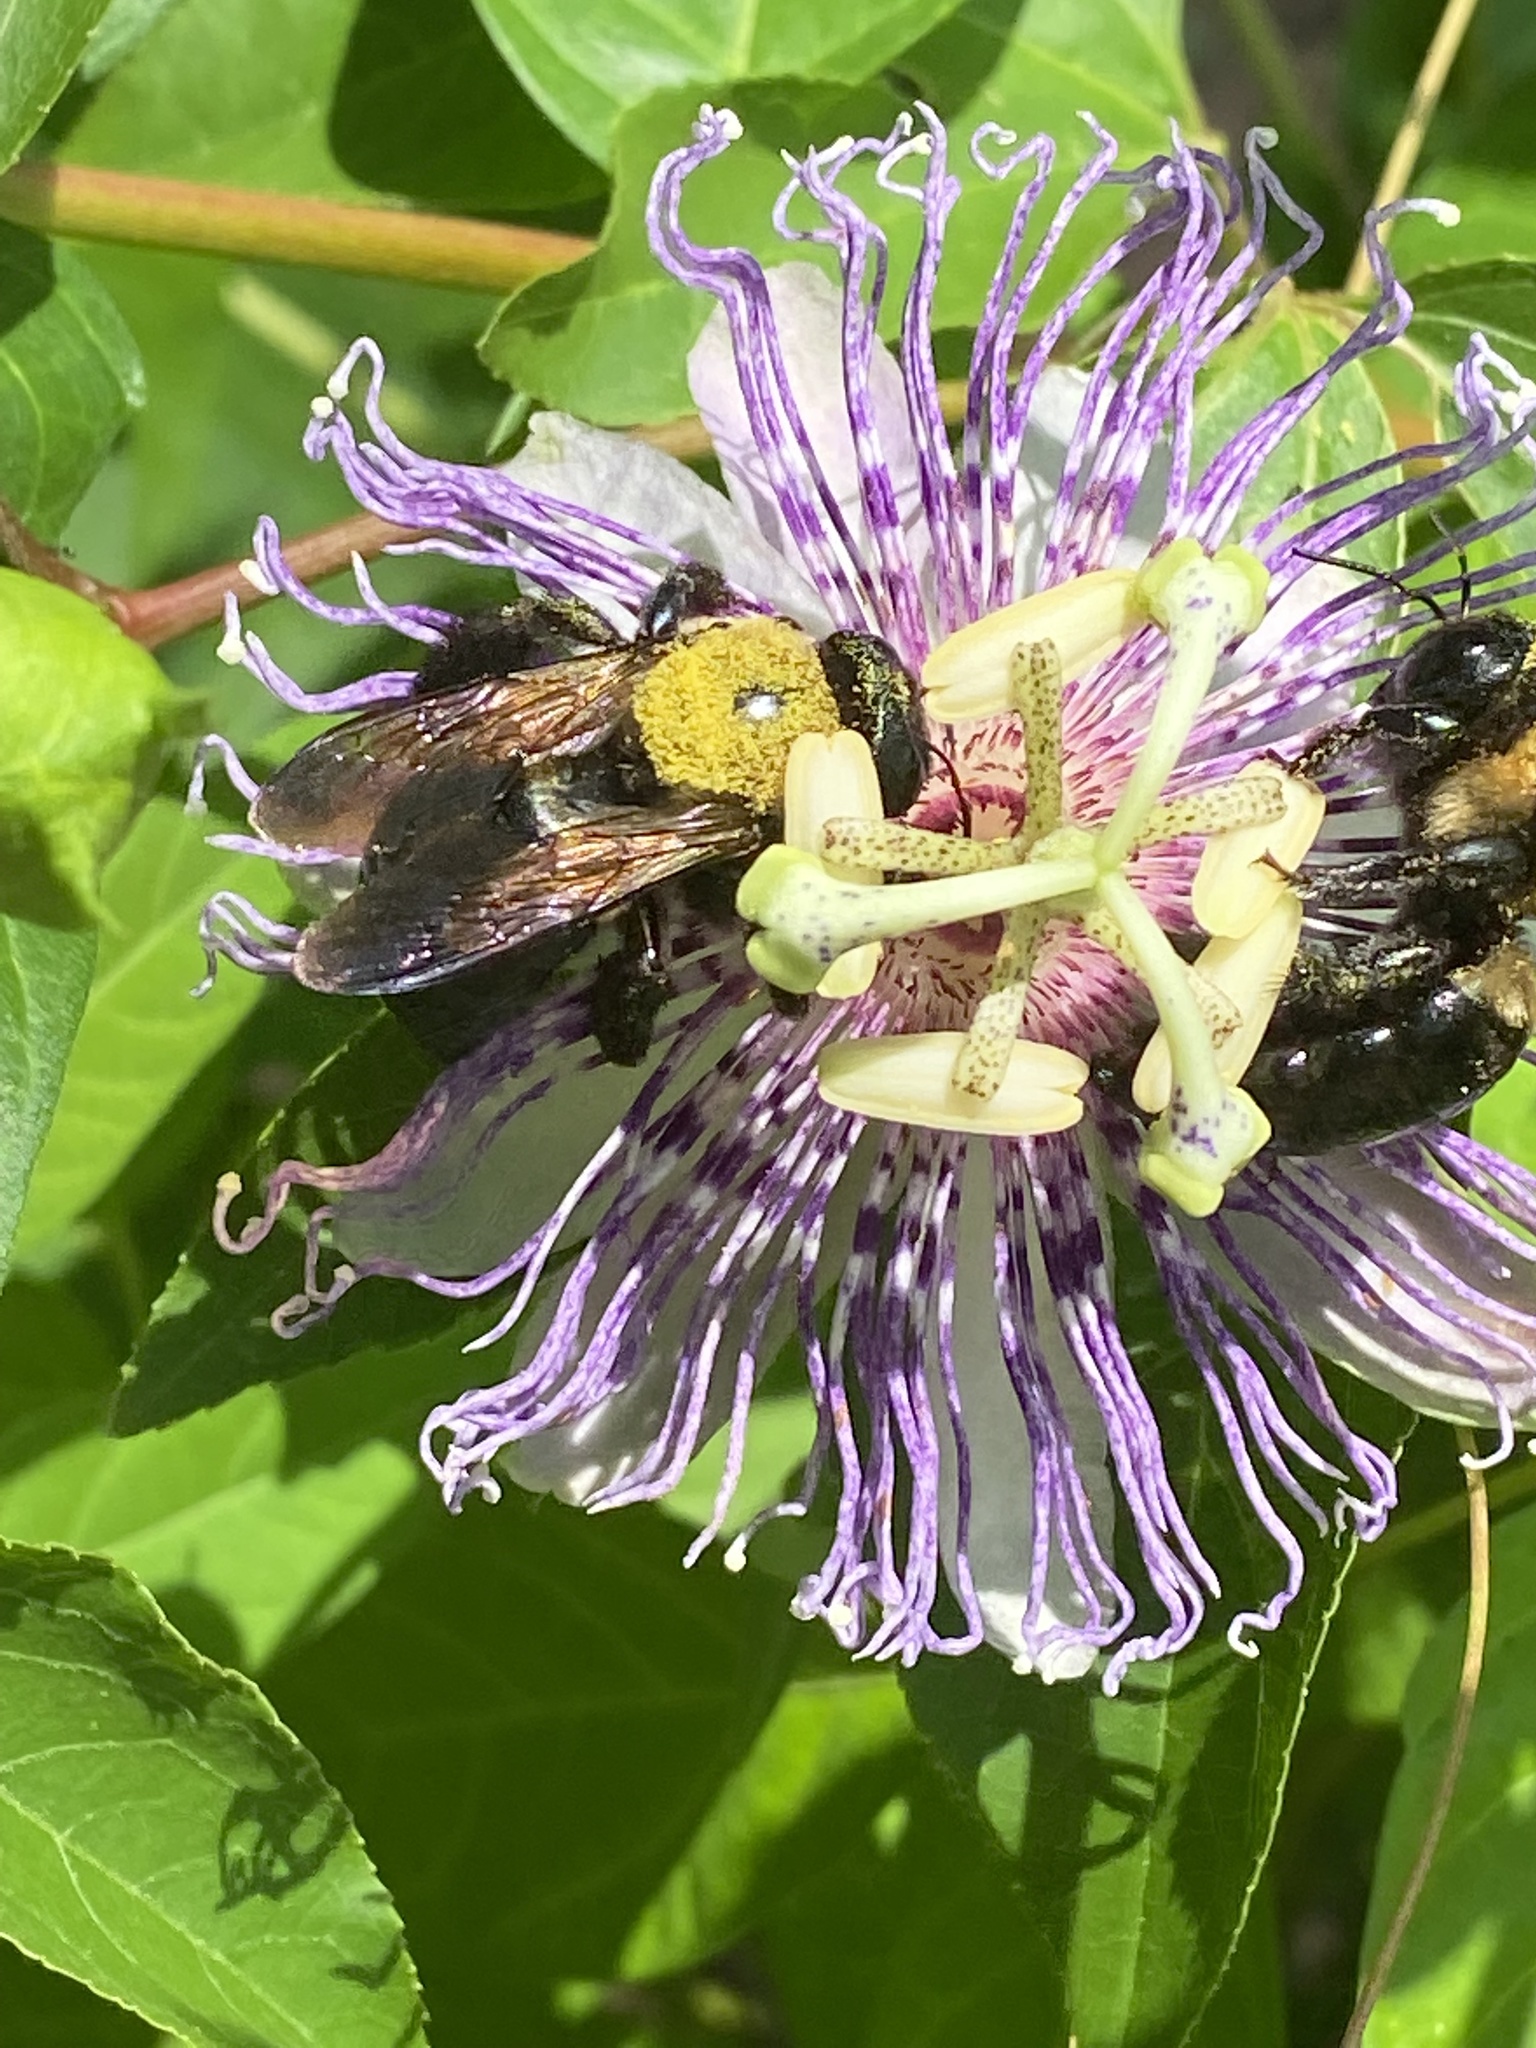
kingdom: Animalia
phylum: Arthropoda
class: Insecta
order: Hymenoptera
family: Apidae
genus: Xylocopa
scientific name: Xylocopa virginica
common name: Carpenter bee
